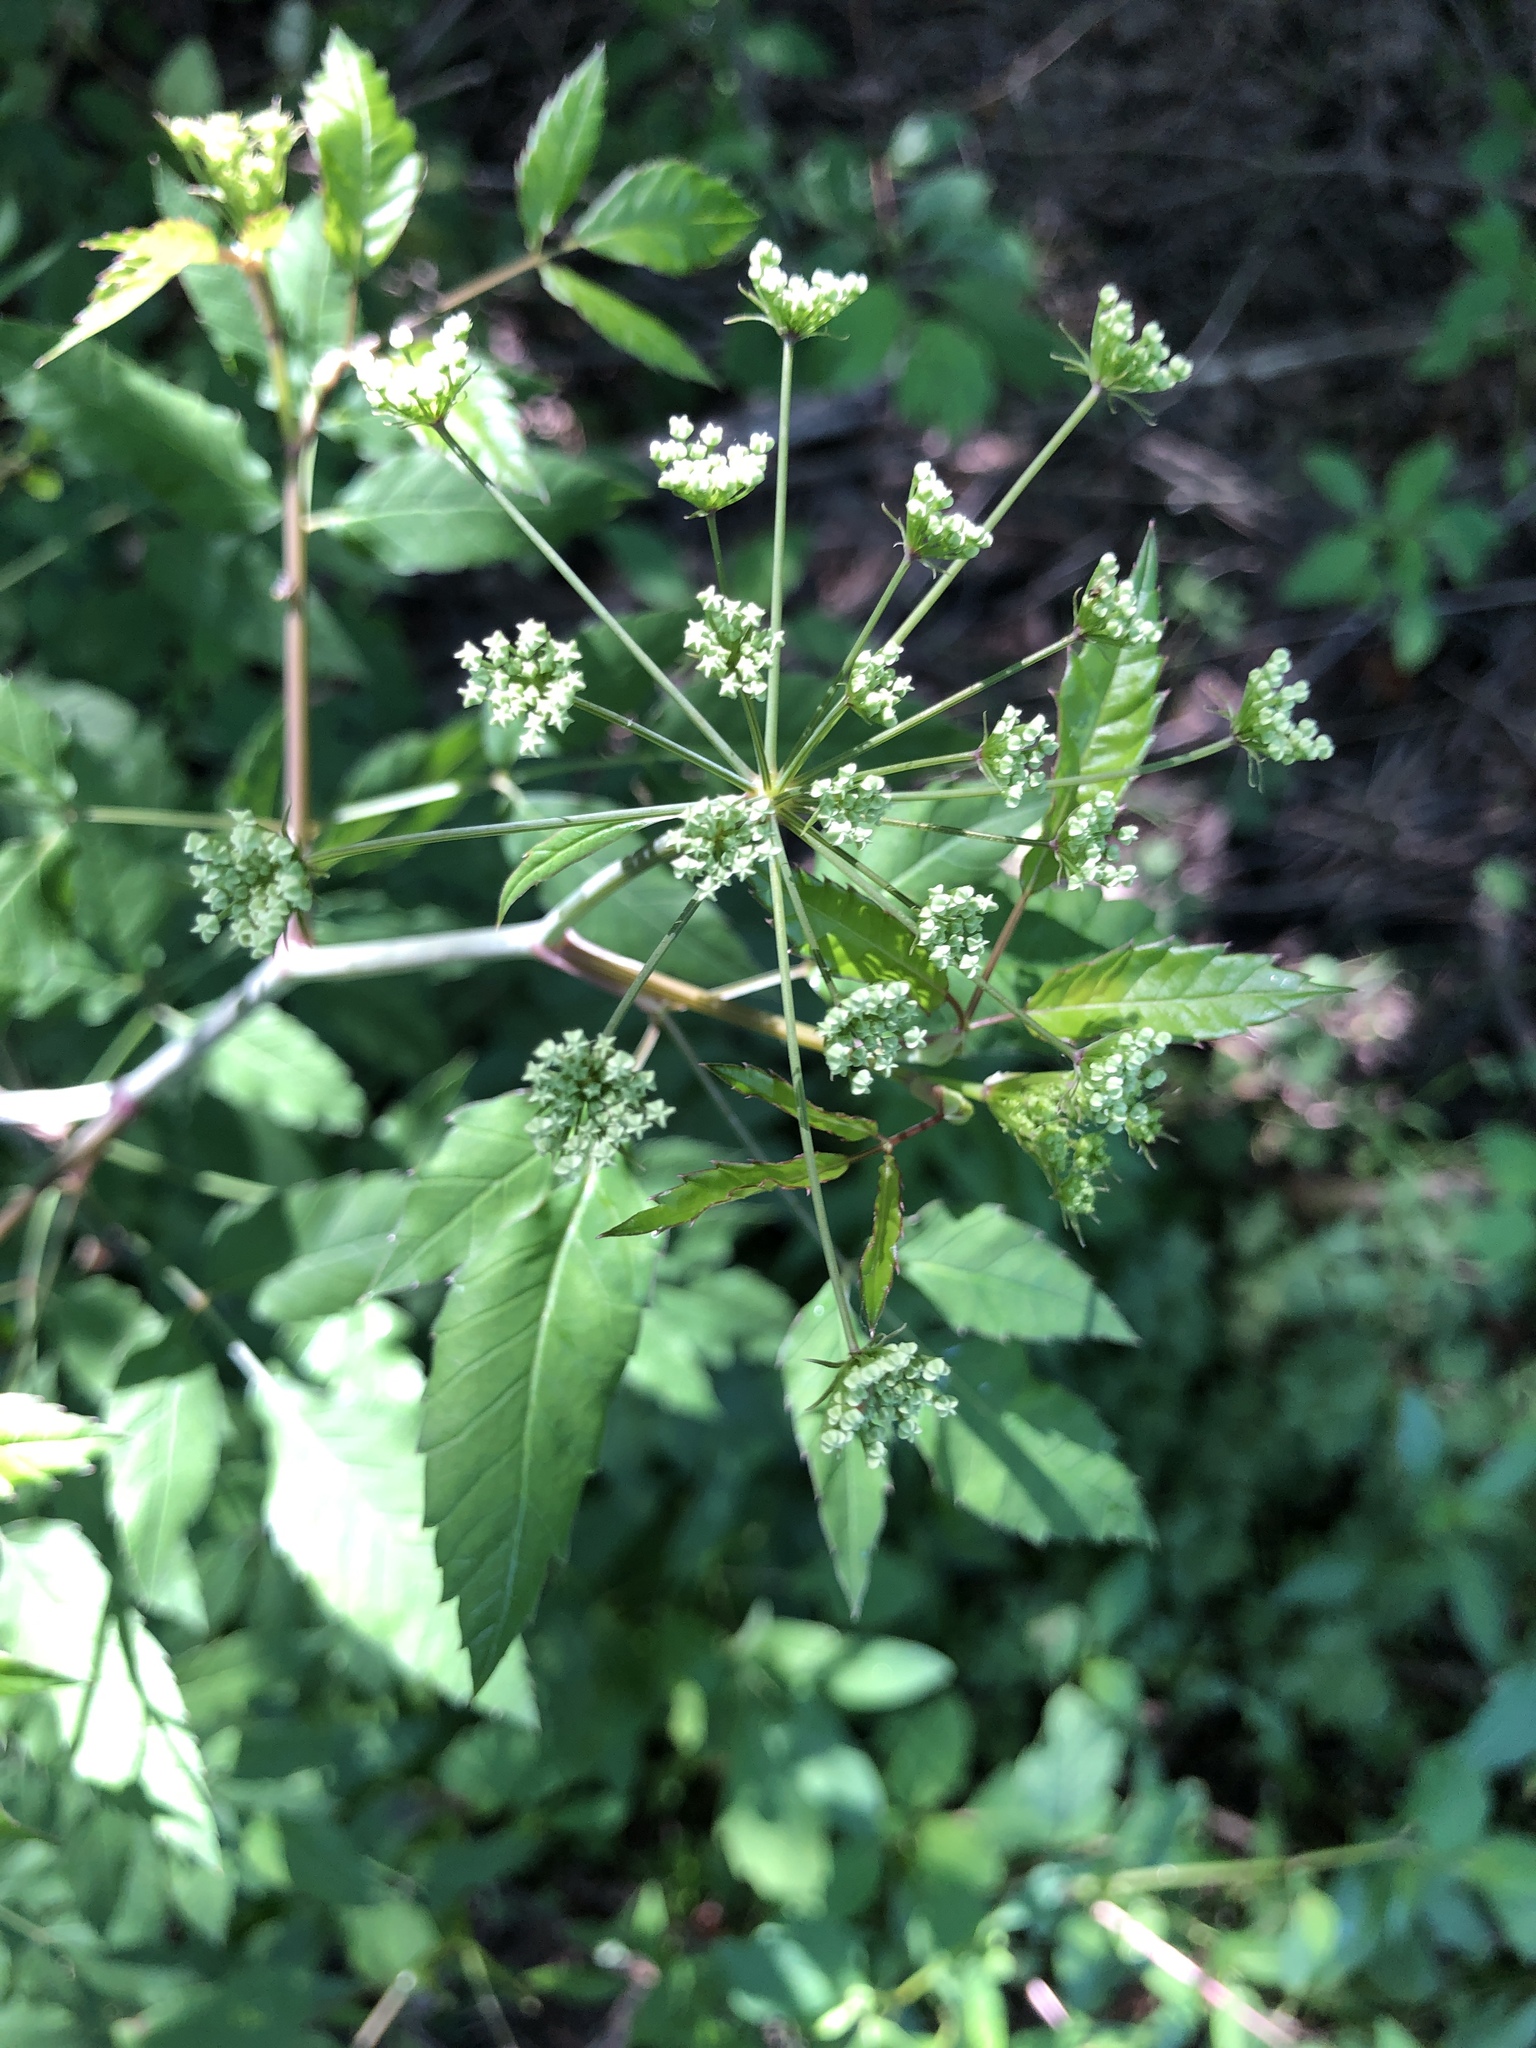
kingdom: Plantae
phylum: Tracheophyta
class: Magnoliopsida
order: Apiales
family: Apiaceae
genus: Cicuta
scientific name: Cicuta maculata
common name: Spotted cowbane
